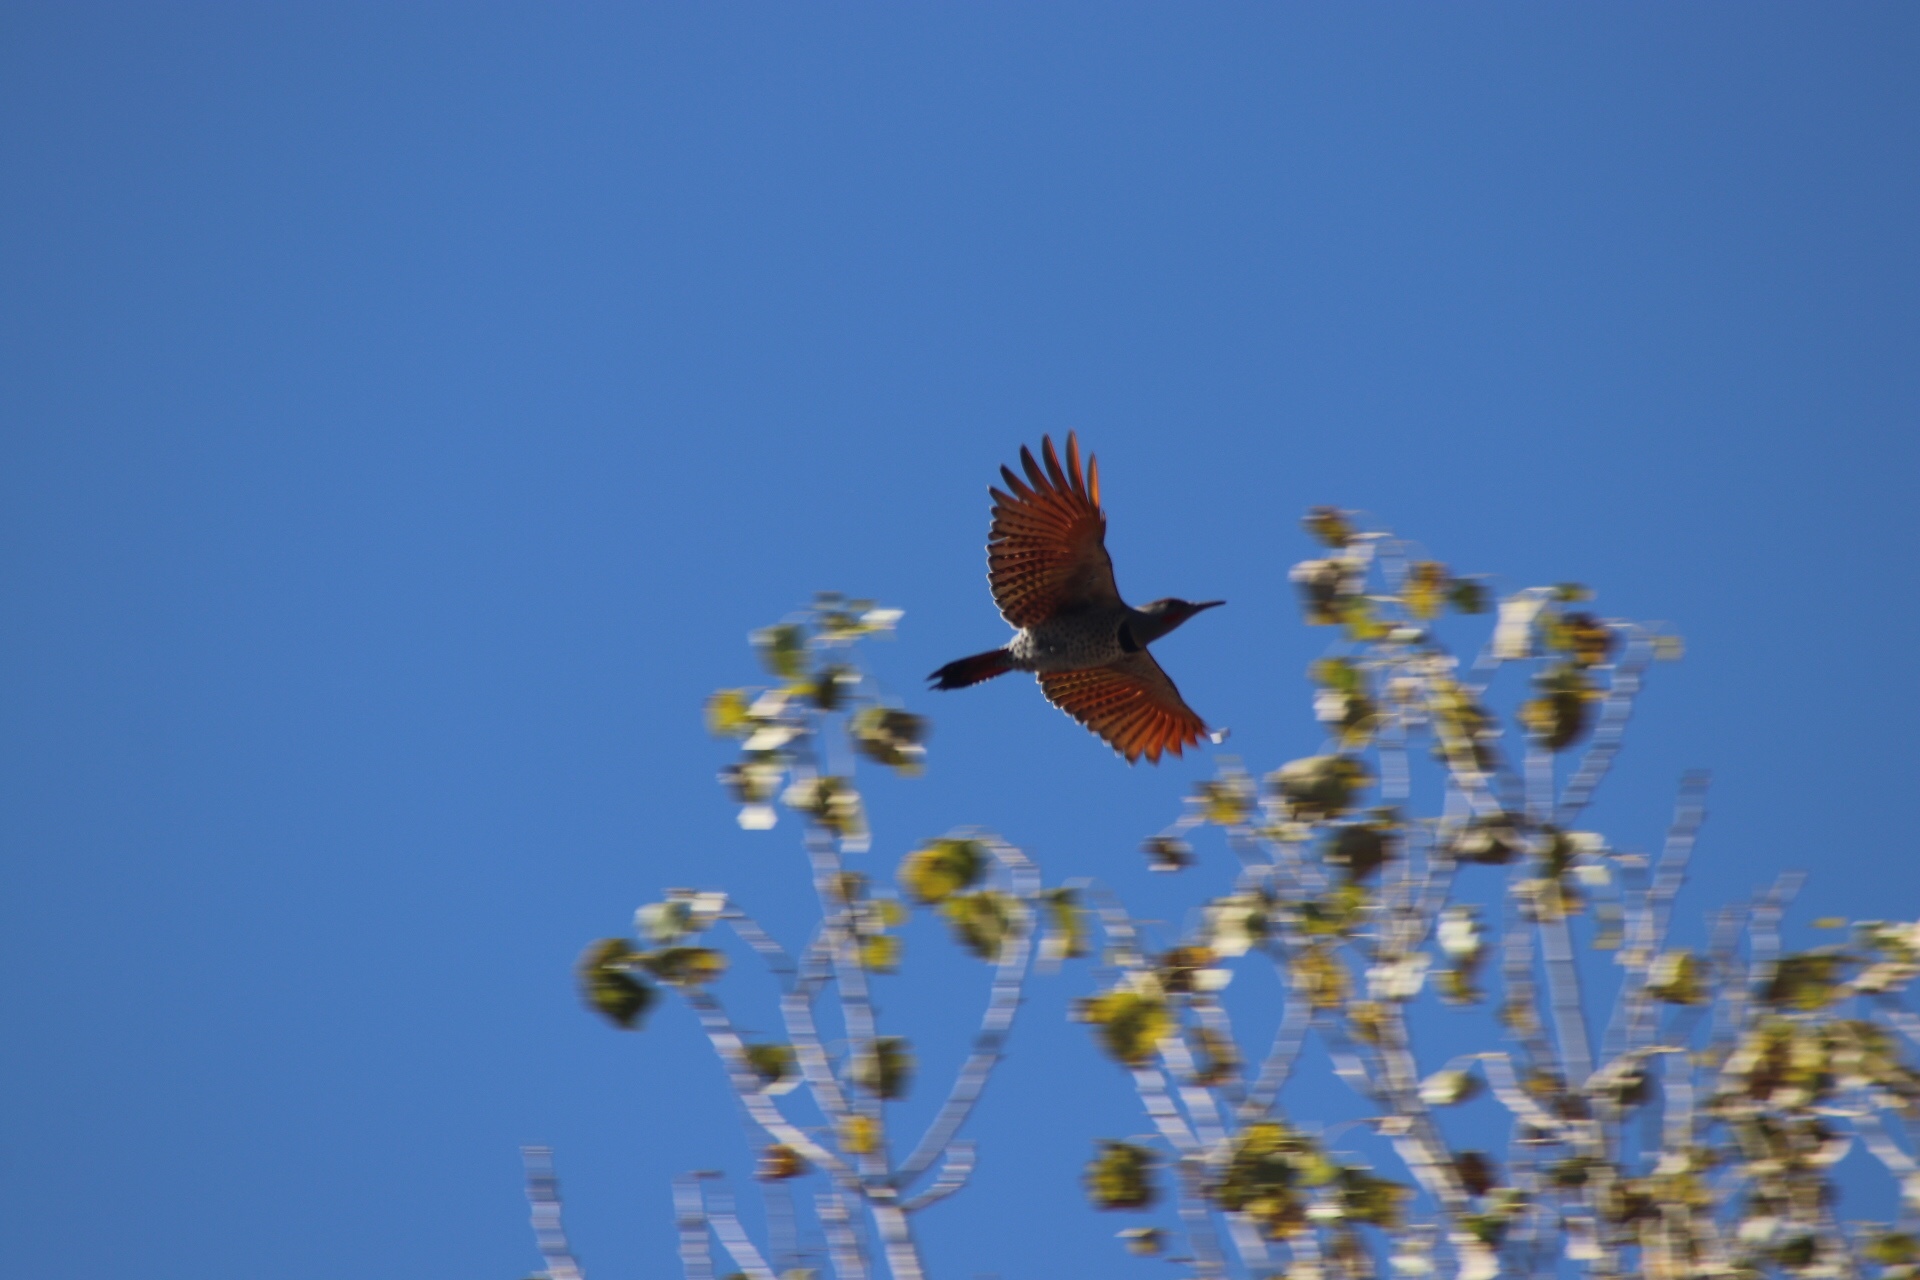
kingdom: Animalia
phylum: Chordata
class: Aves
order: Piciformes
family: Picidae
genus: Colaptes
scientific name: Colaptes auratus
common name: Northern flicker
